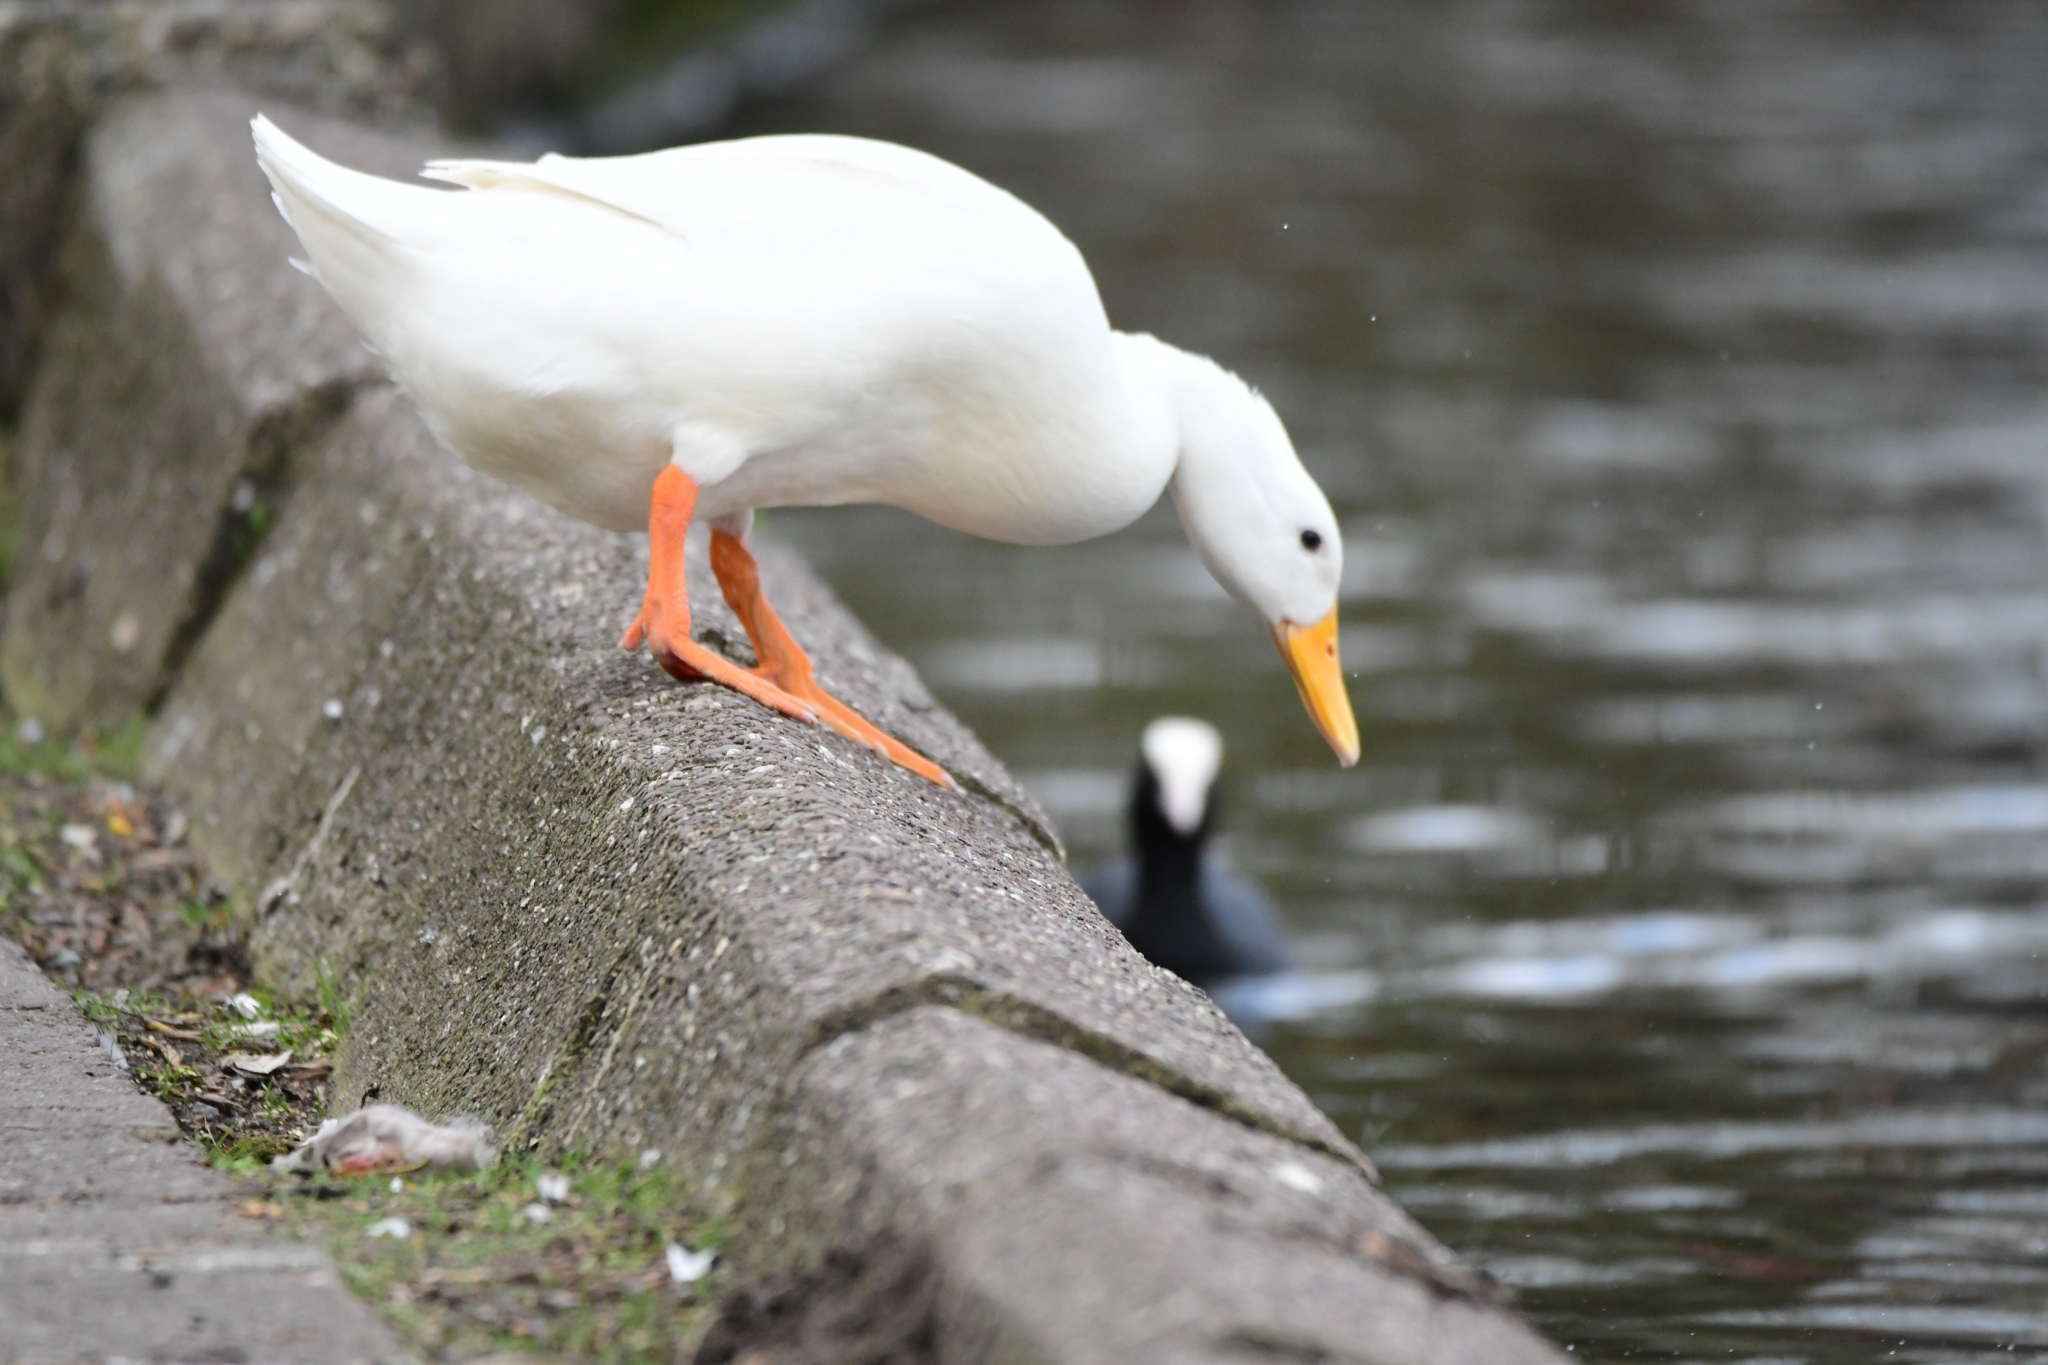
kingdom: Animalia
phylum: Chordata
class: Aves
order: Anseriformes
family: Anatidae
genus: Anas
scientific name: Anas platyrhynchos
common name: Mallard
